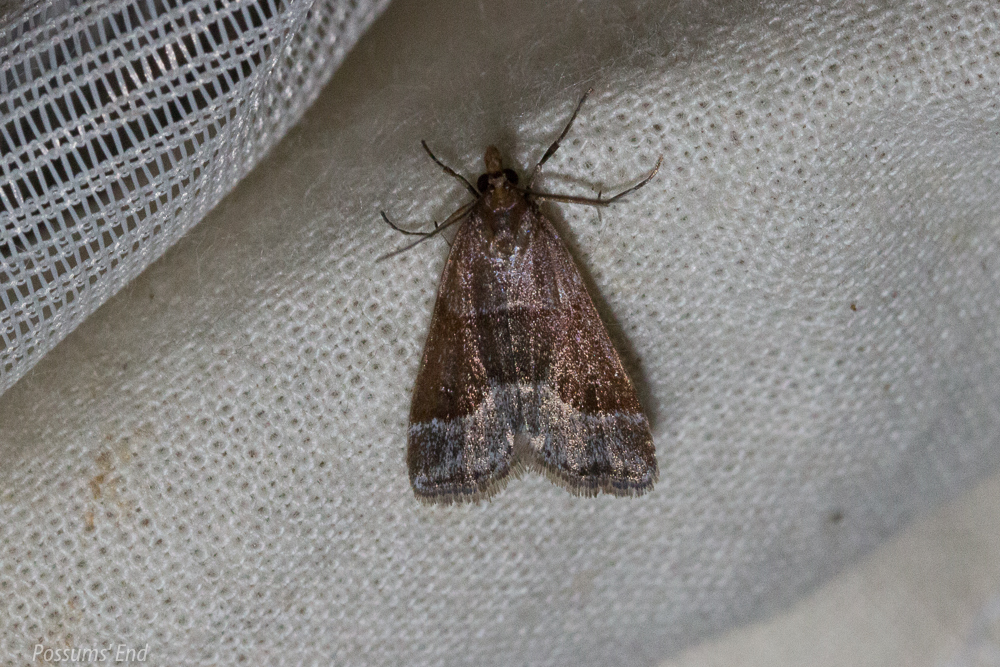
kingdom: Animalia
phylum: Arthropoda
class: Insecta
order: Lepidoptera
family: Crambidae
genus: Eudonia
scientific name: Eudonia feredayi
